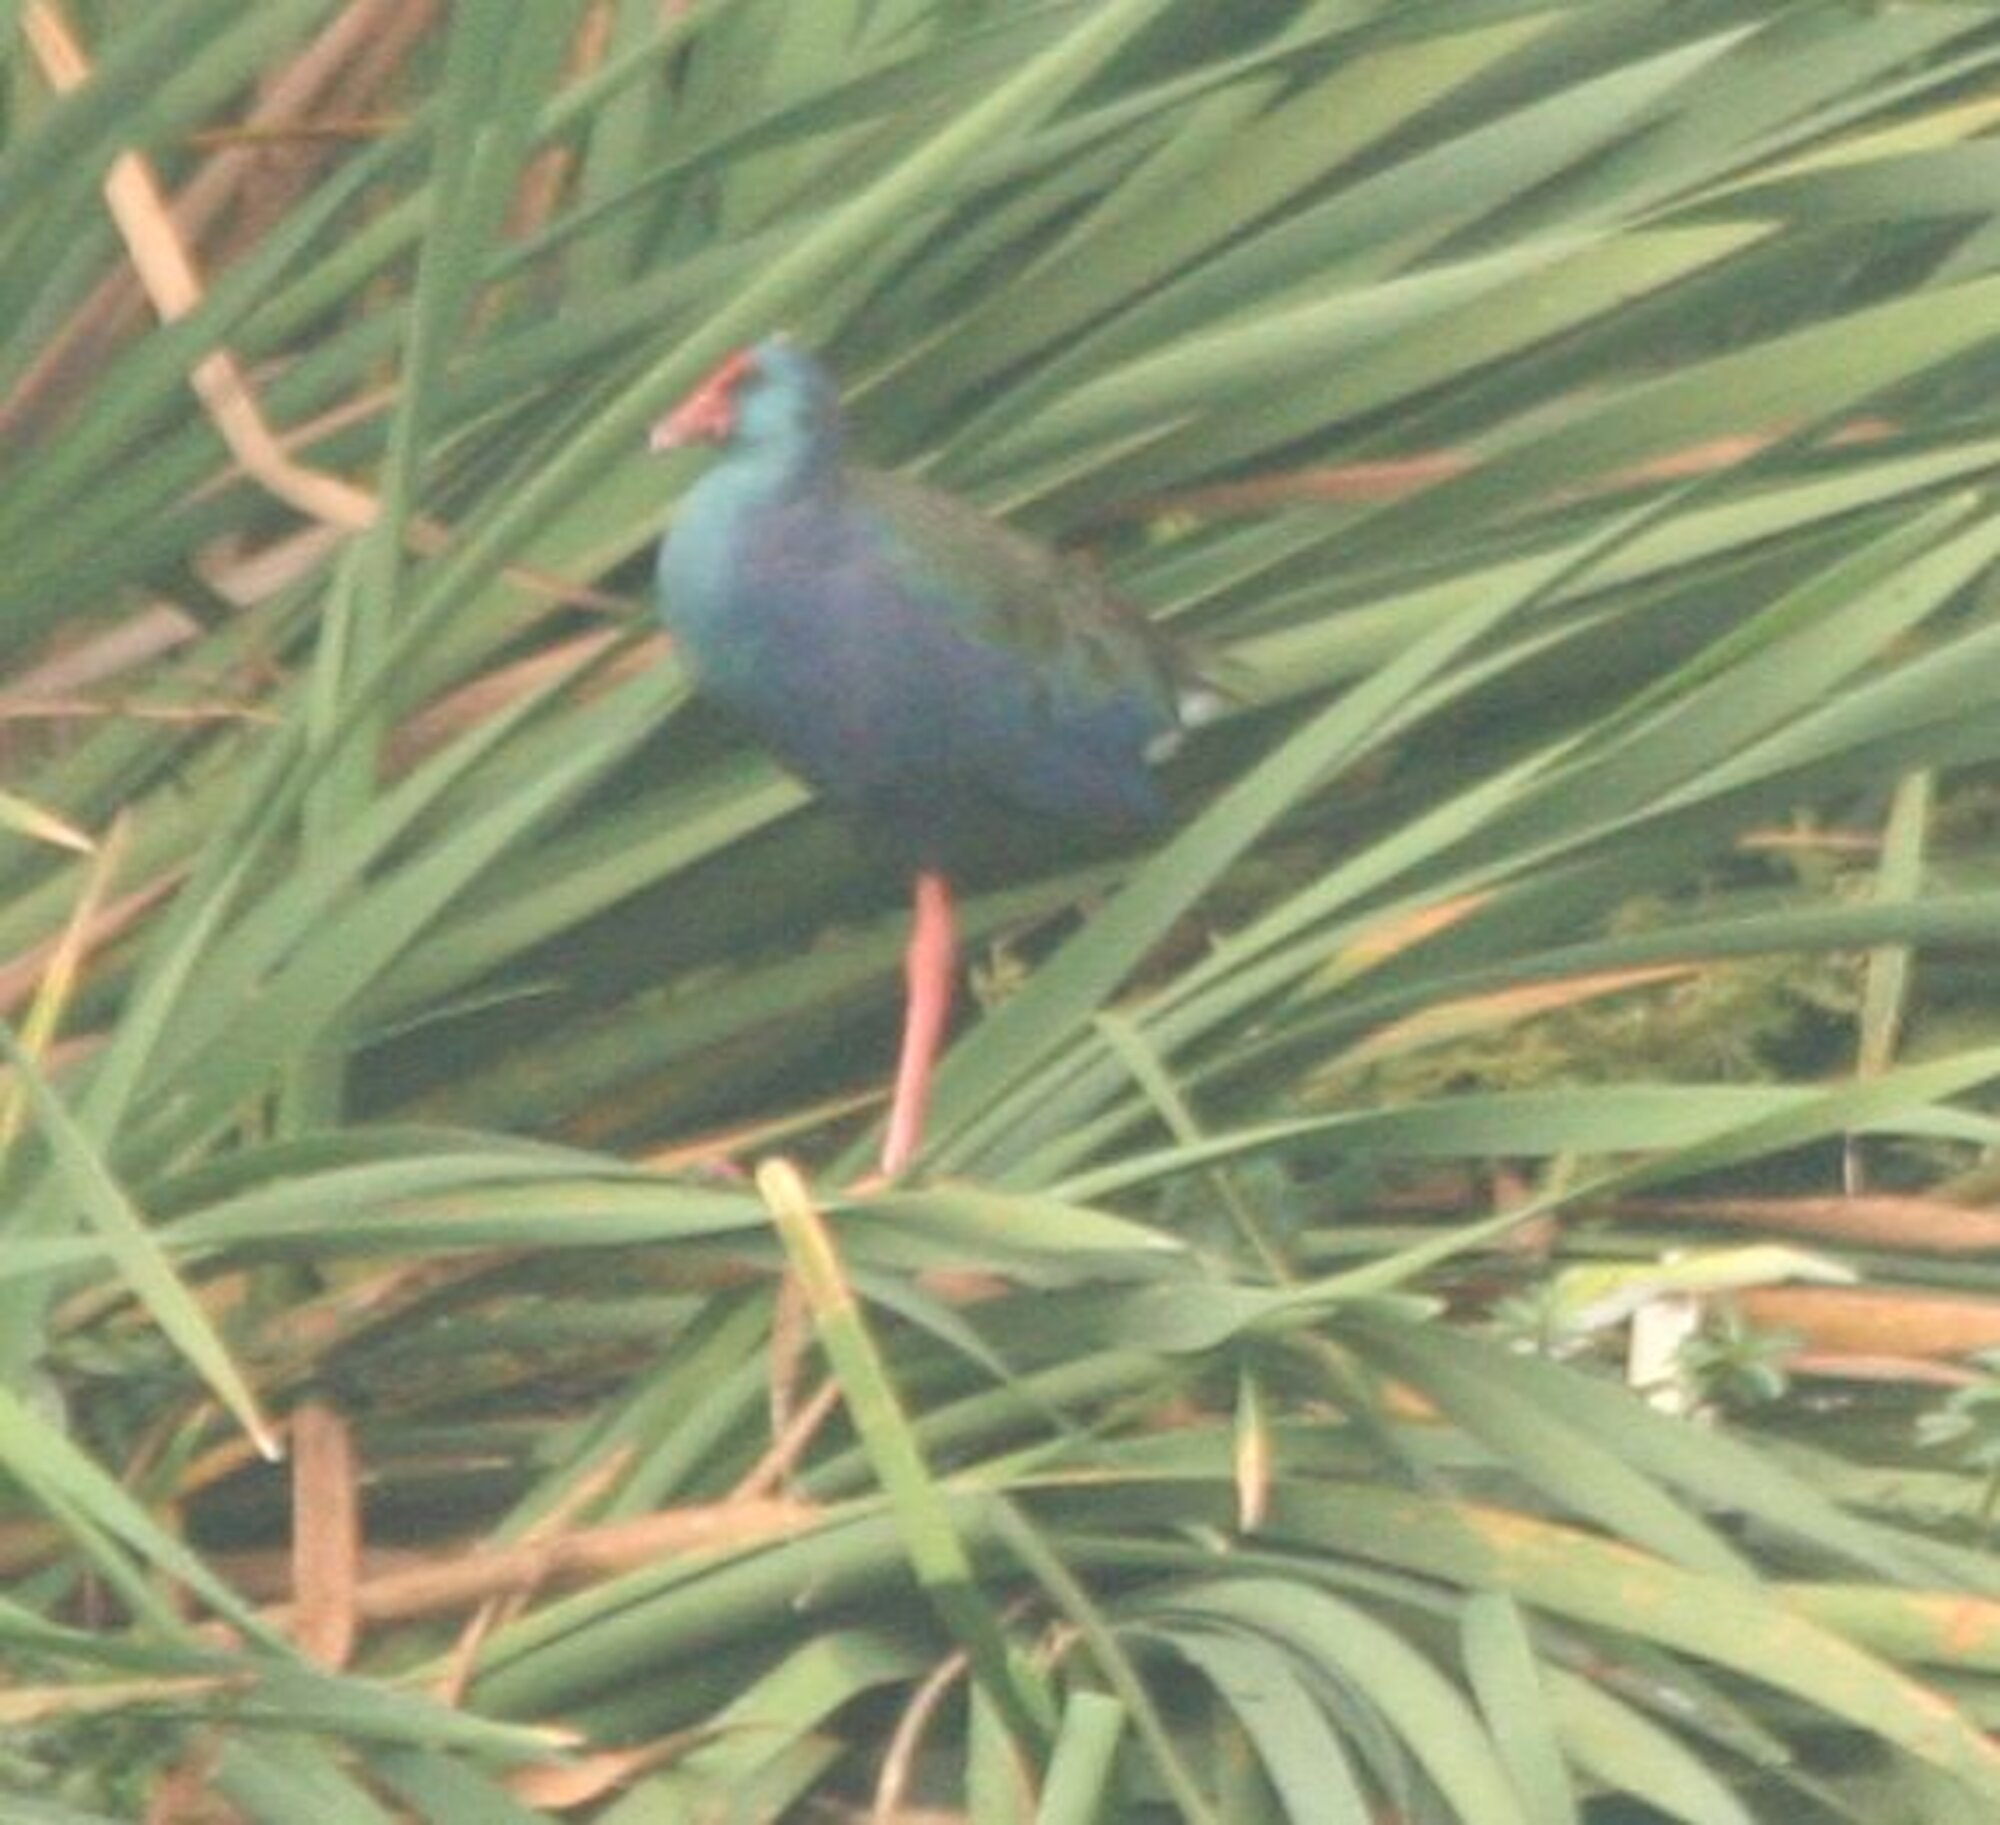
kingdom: Animalia
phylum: Chordata
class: Aves
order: Gruiformes
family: Rallidae
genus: Porphyrio
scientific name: Porphyrio porphyrio
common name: Purple swamphen
